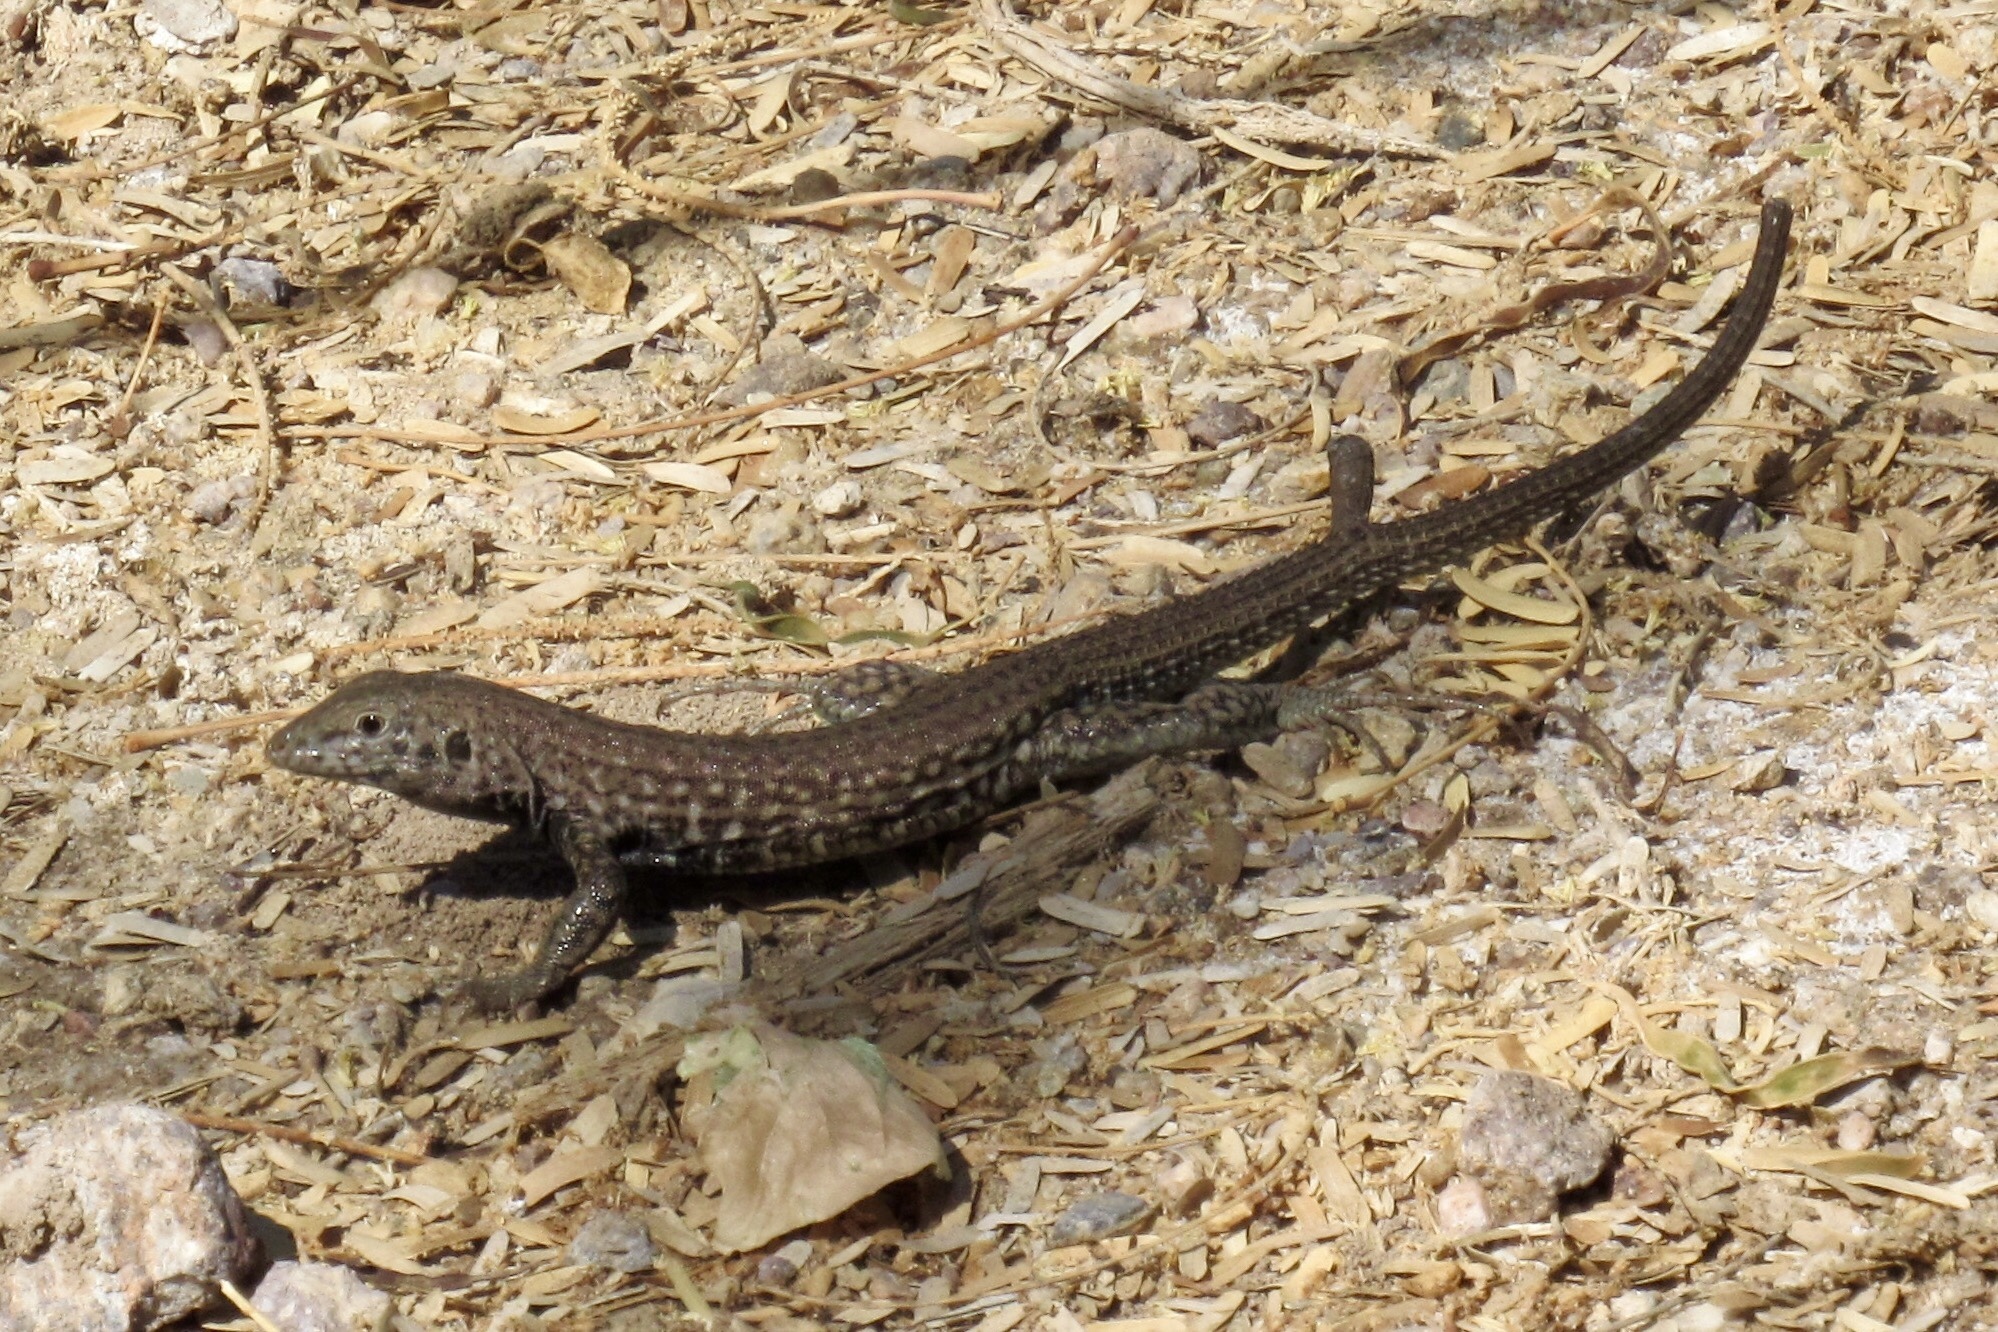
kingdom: Animalia
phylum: Chordata
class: Squamata
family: Teiidae
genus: Aspidoscelis
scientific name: Aspidoscelis tigris
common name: Tiger whiptail
